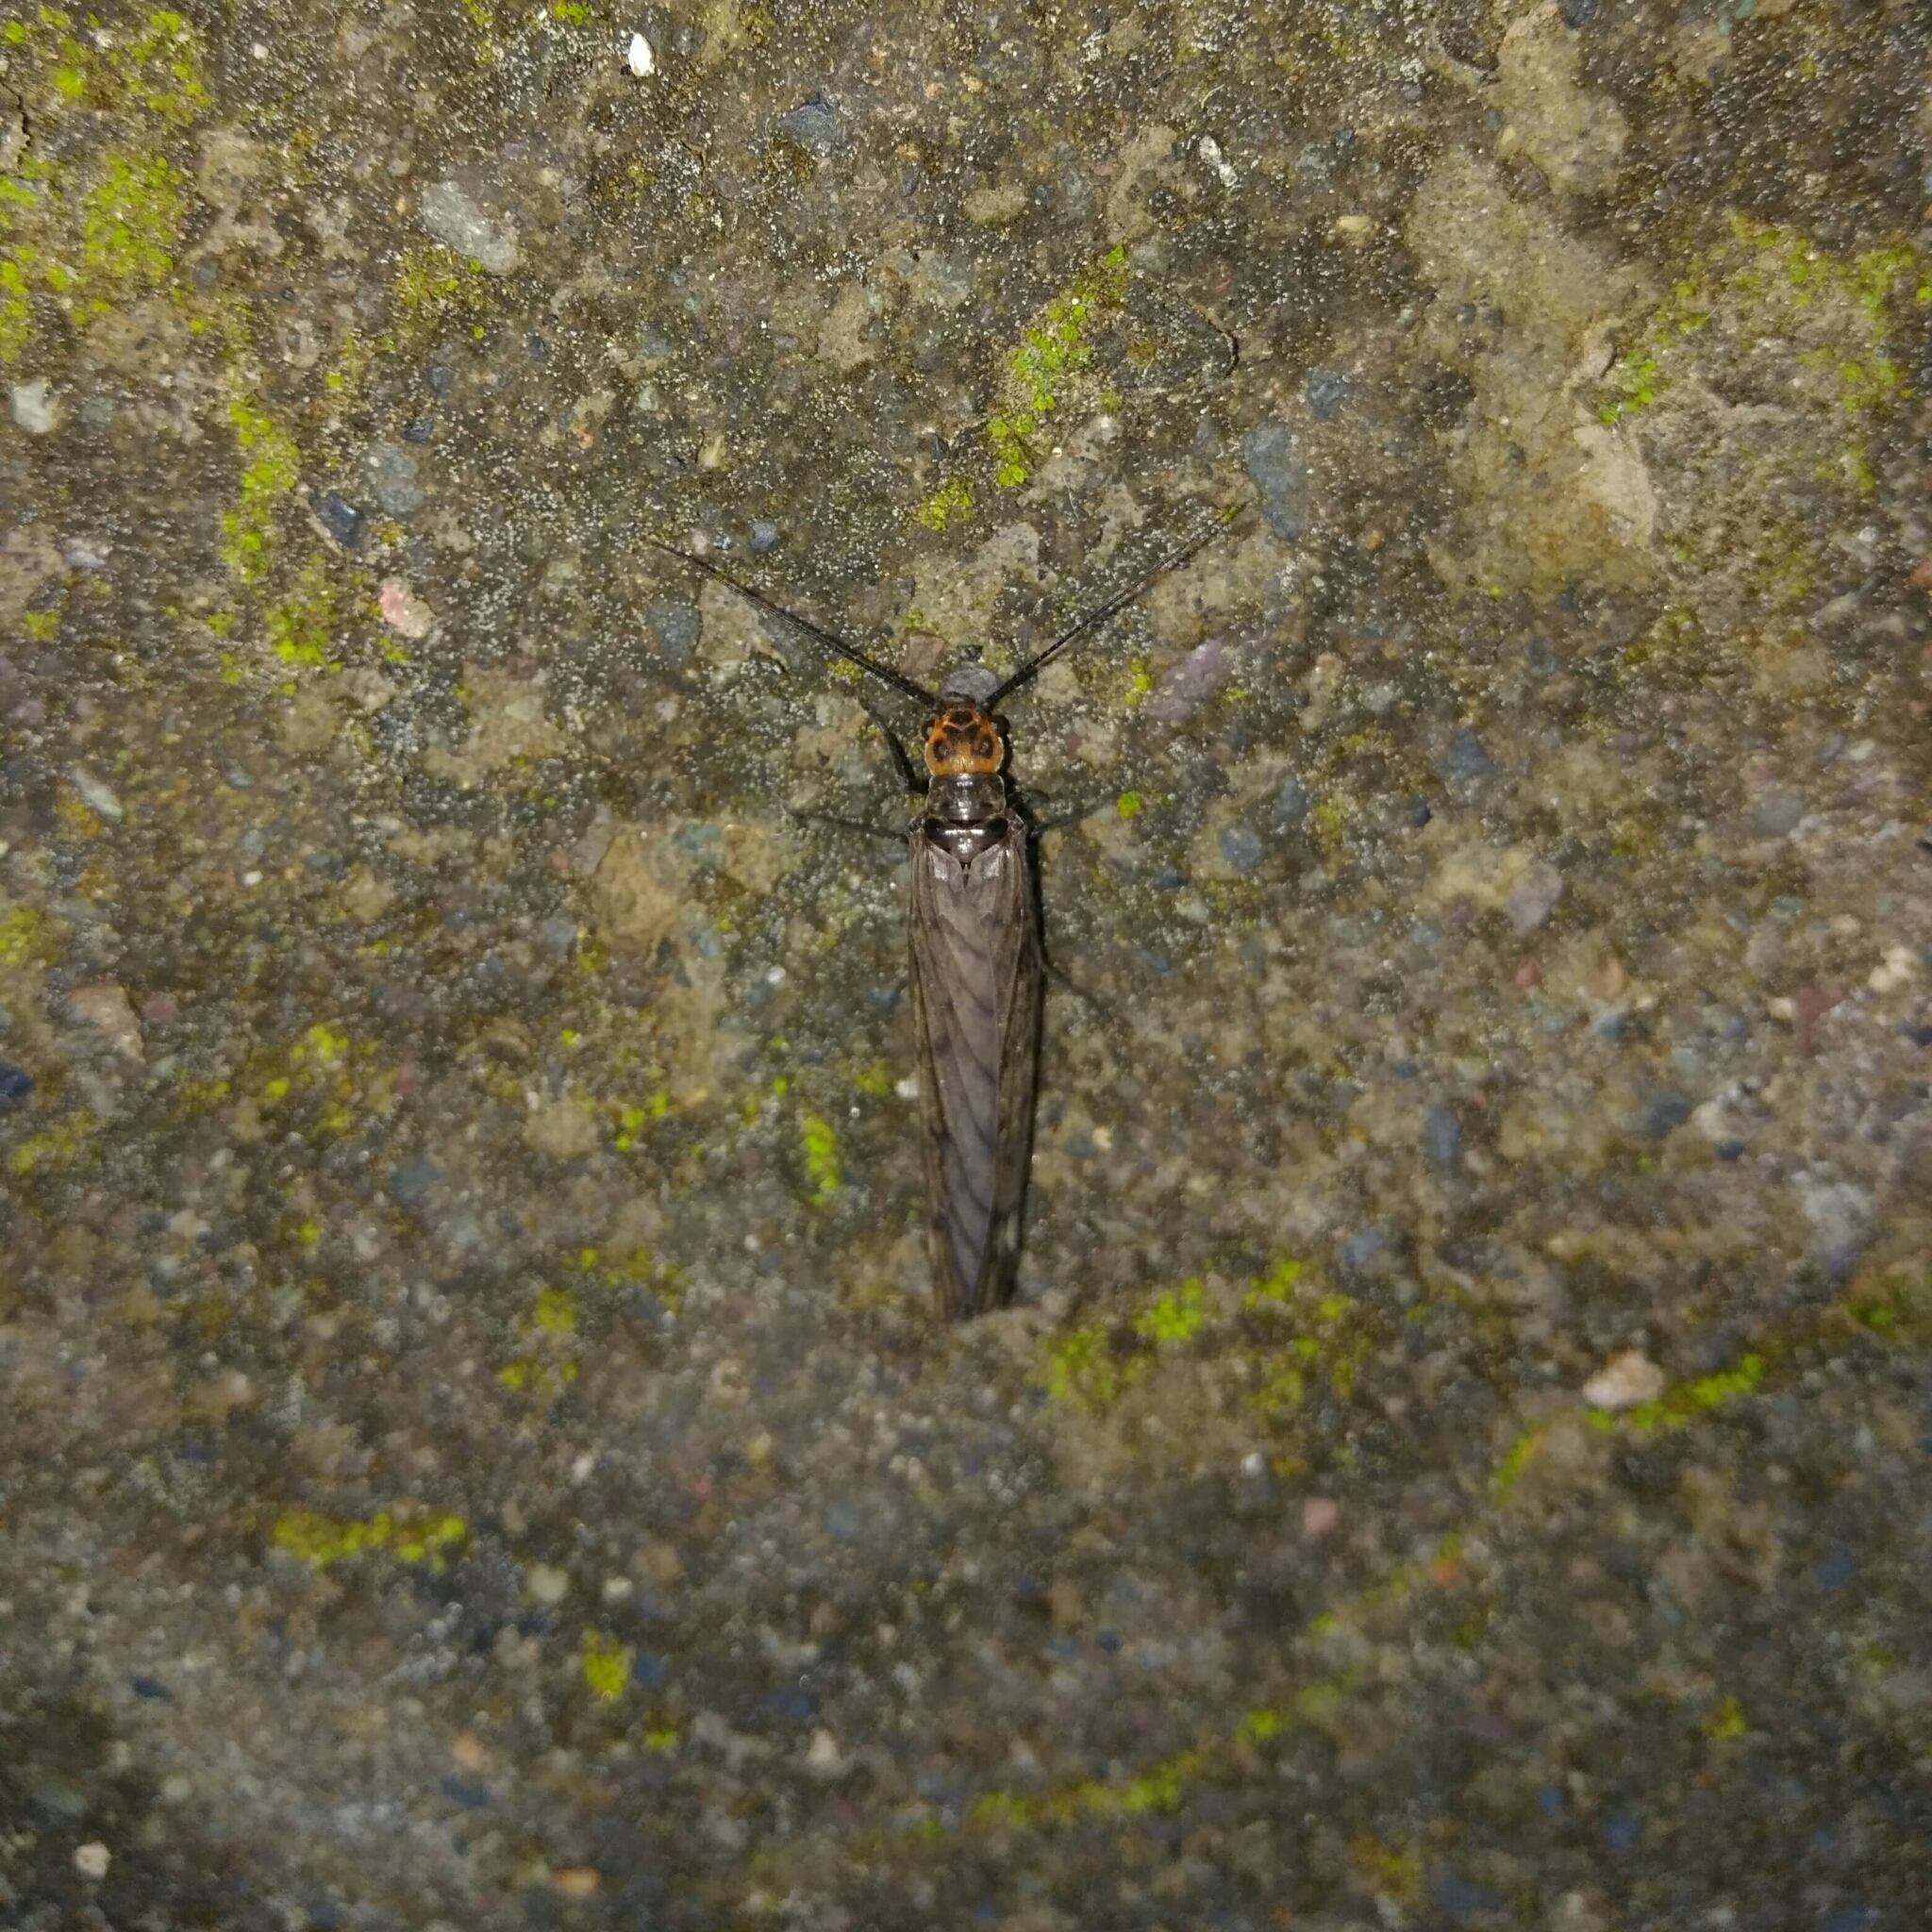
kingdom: Animalia
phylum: Arthropoda
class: Insecta
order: Megaloptera
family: Sialidae
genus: Ilyobius
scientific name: Ilyobius chilensis
